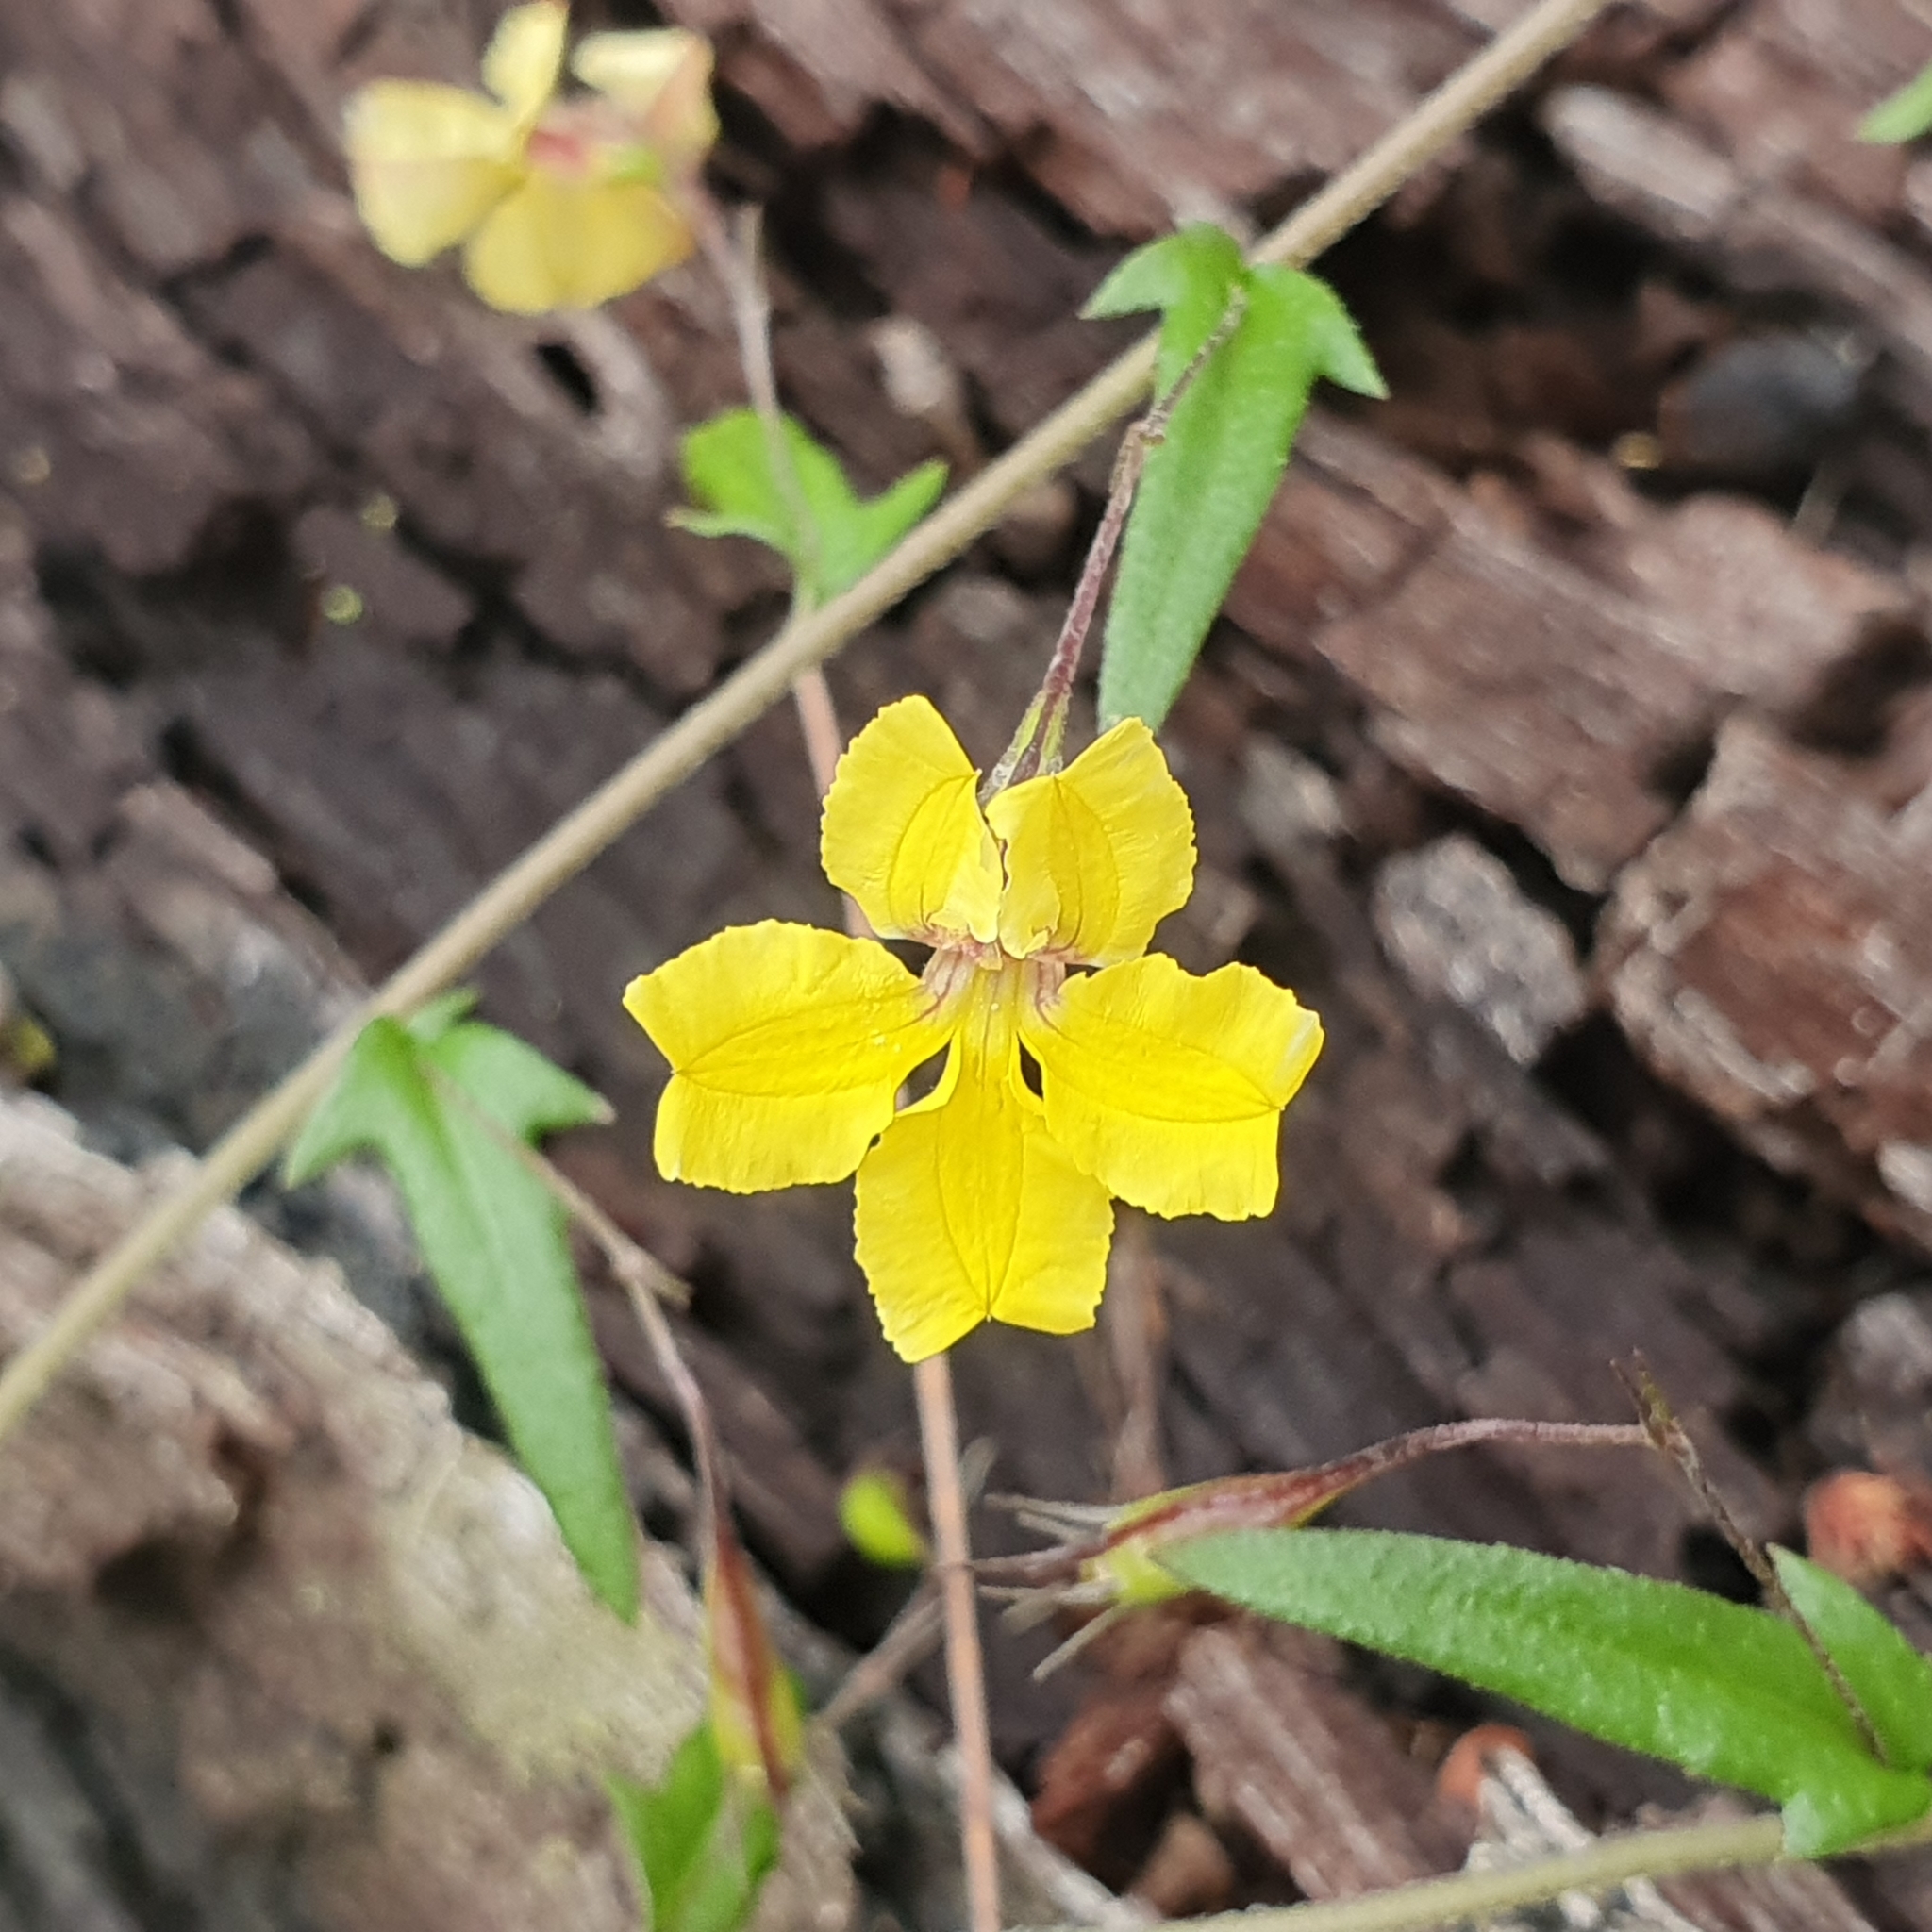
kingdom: Plantae
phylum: Tracheophyta
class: Magnoliopsida
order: Asterales
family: Goodeniaceae
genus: Goodenia
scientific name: Goodenia heterophylla
